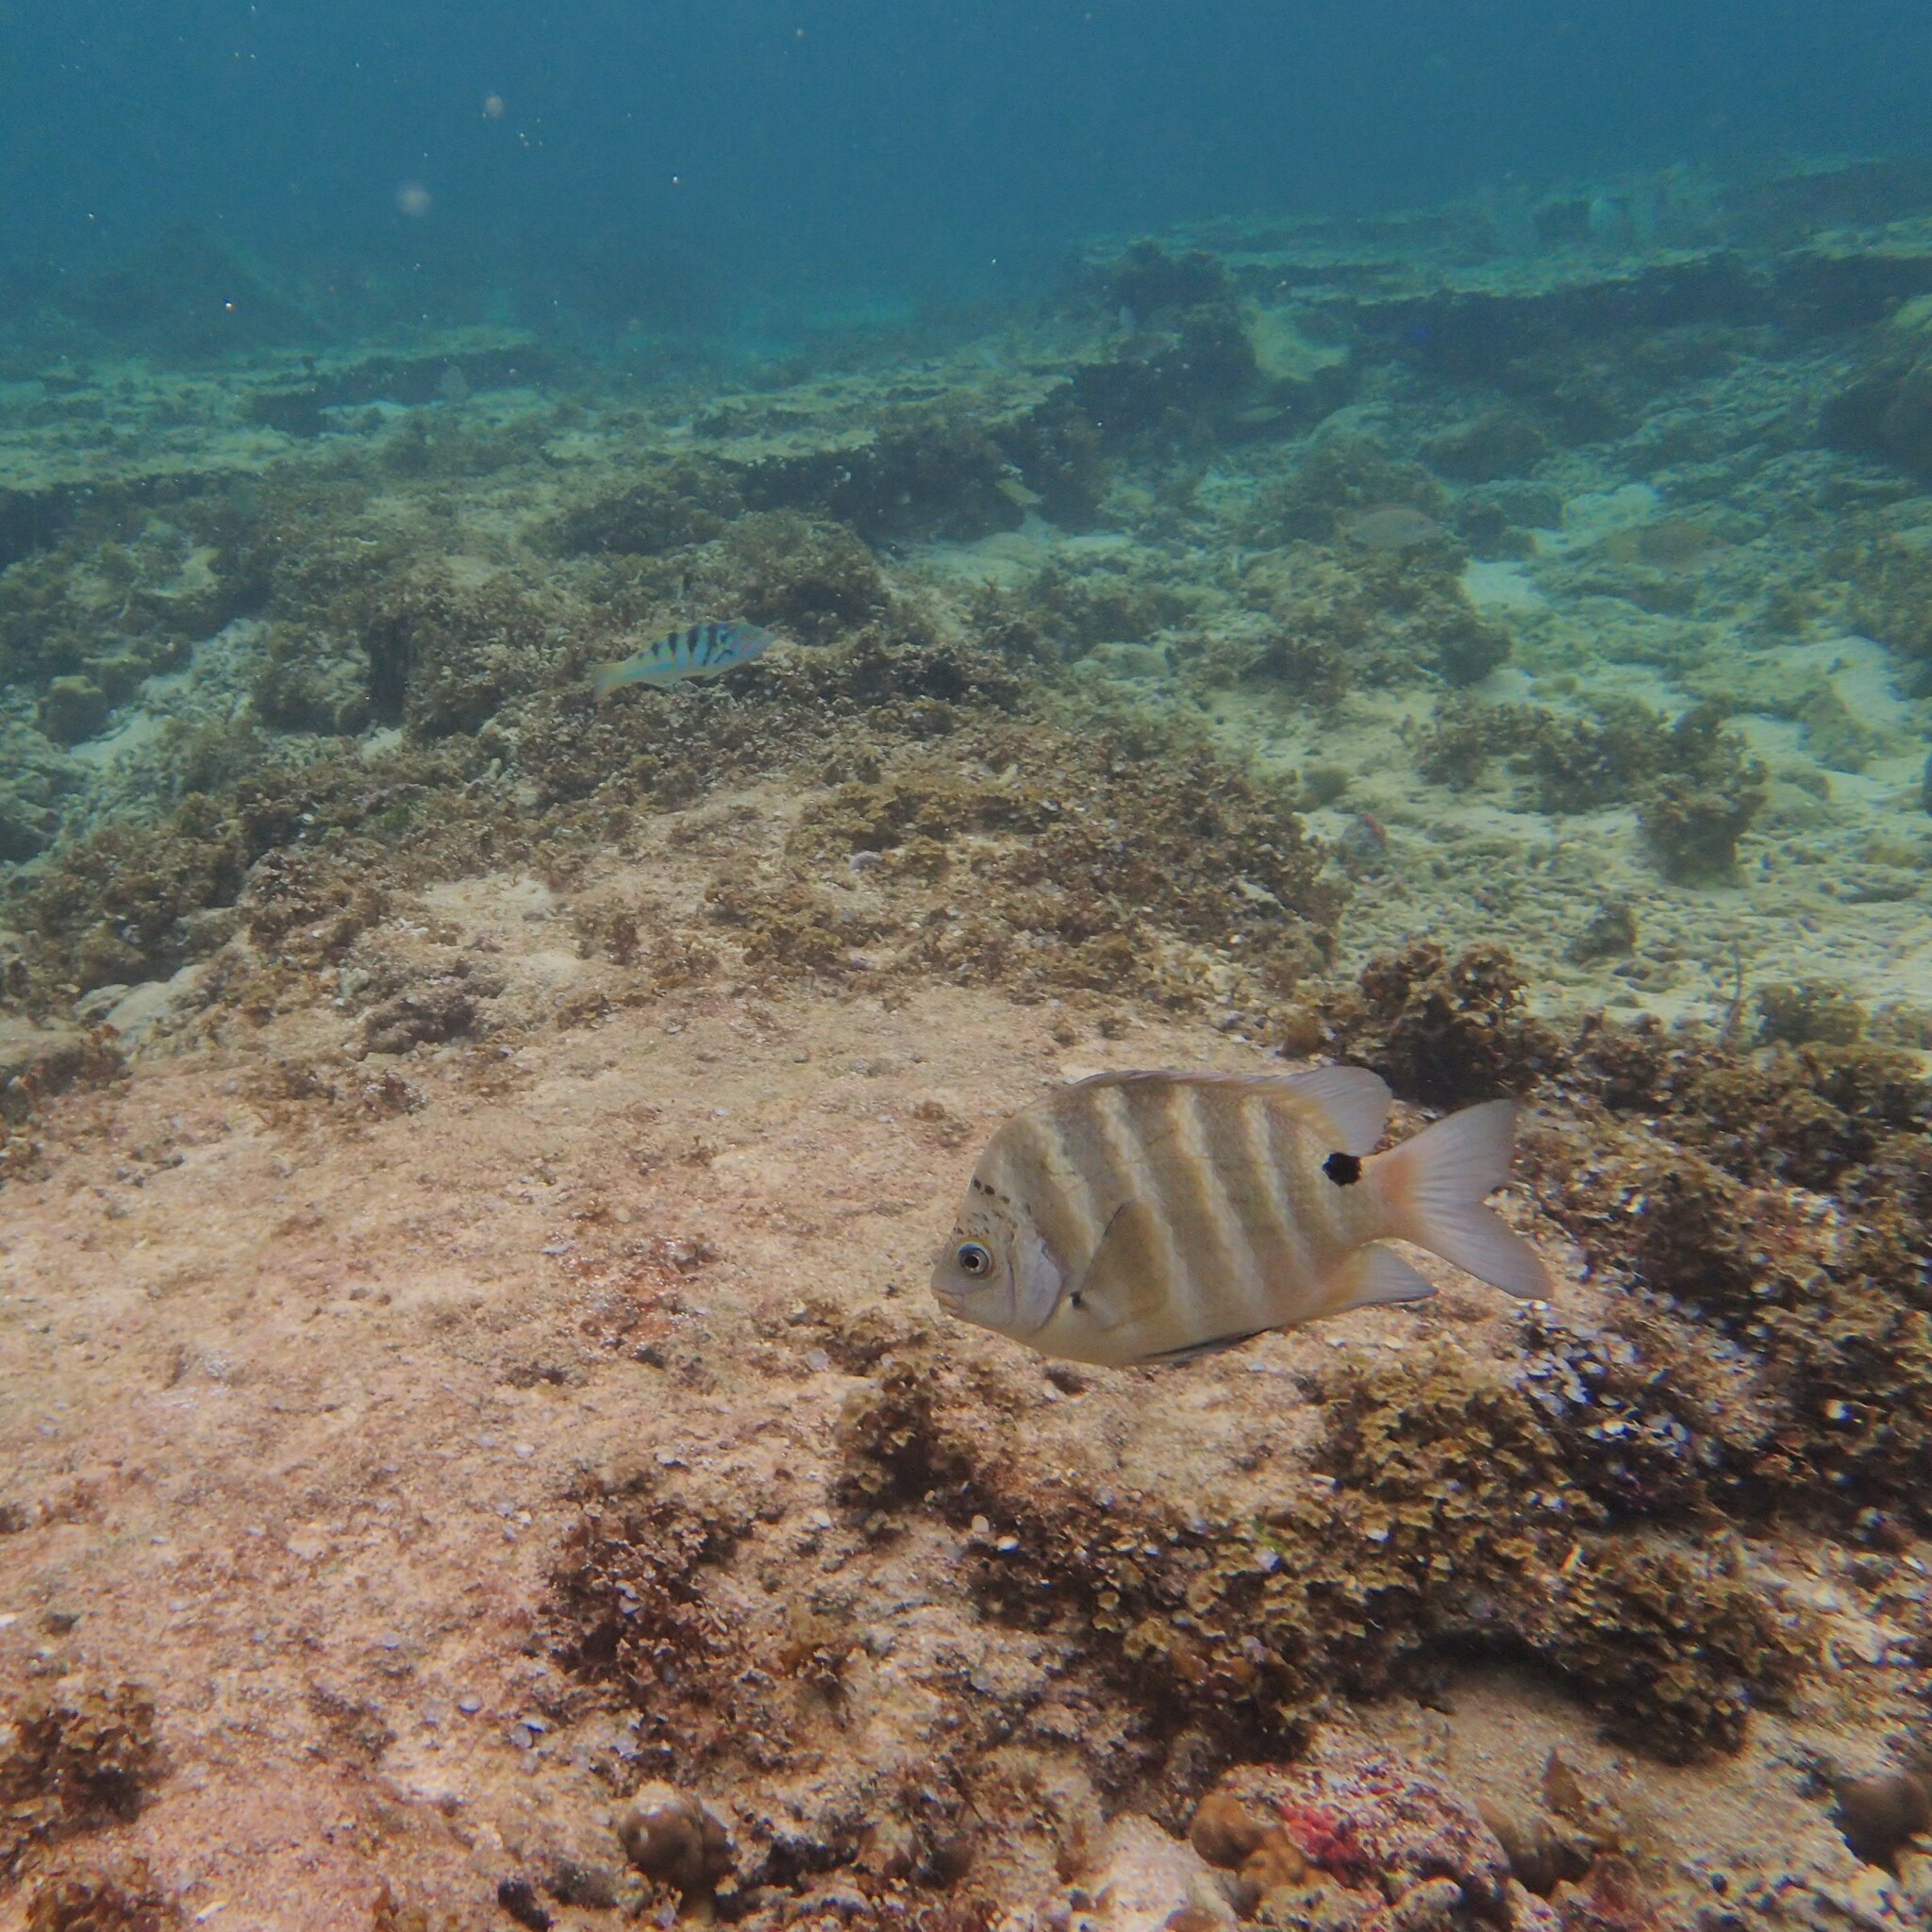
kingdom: Animalia
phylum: Chordata
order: Perciformes
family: Pomacentridae
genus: Abudefduf
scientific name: Abudefduf sordidus
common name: Blackspot sergeant
